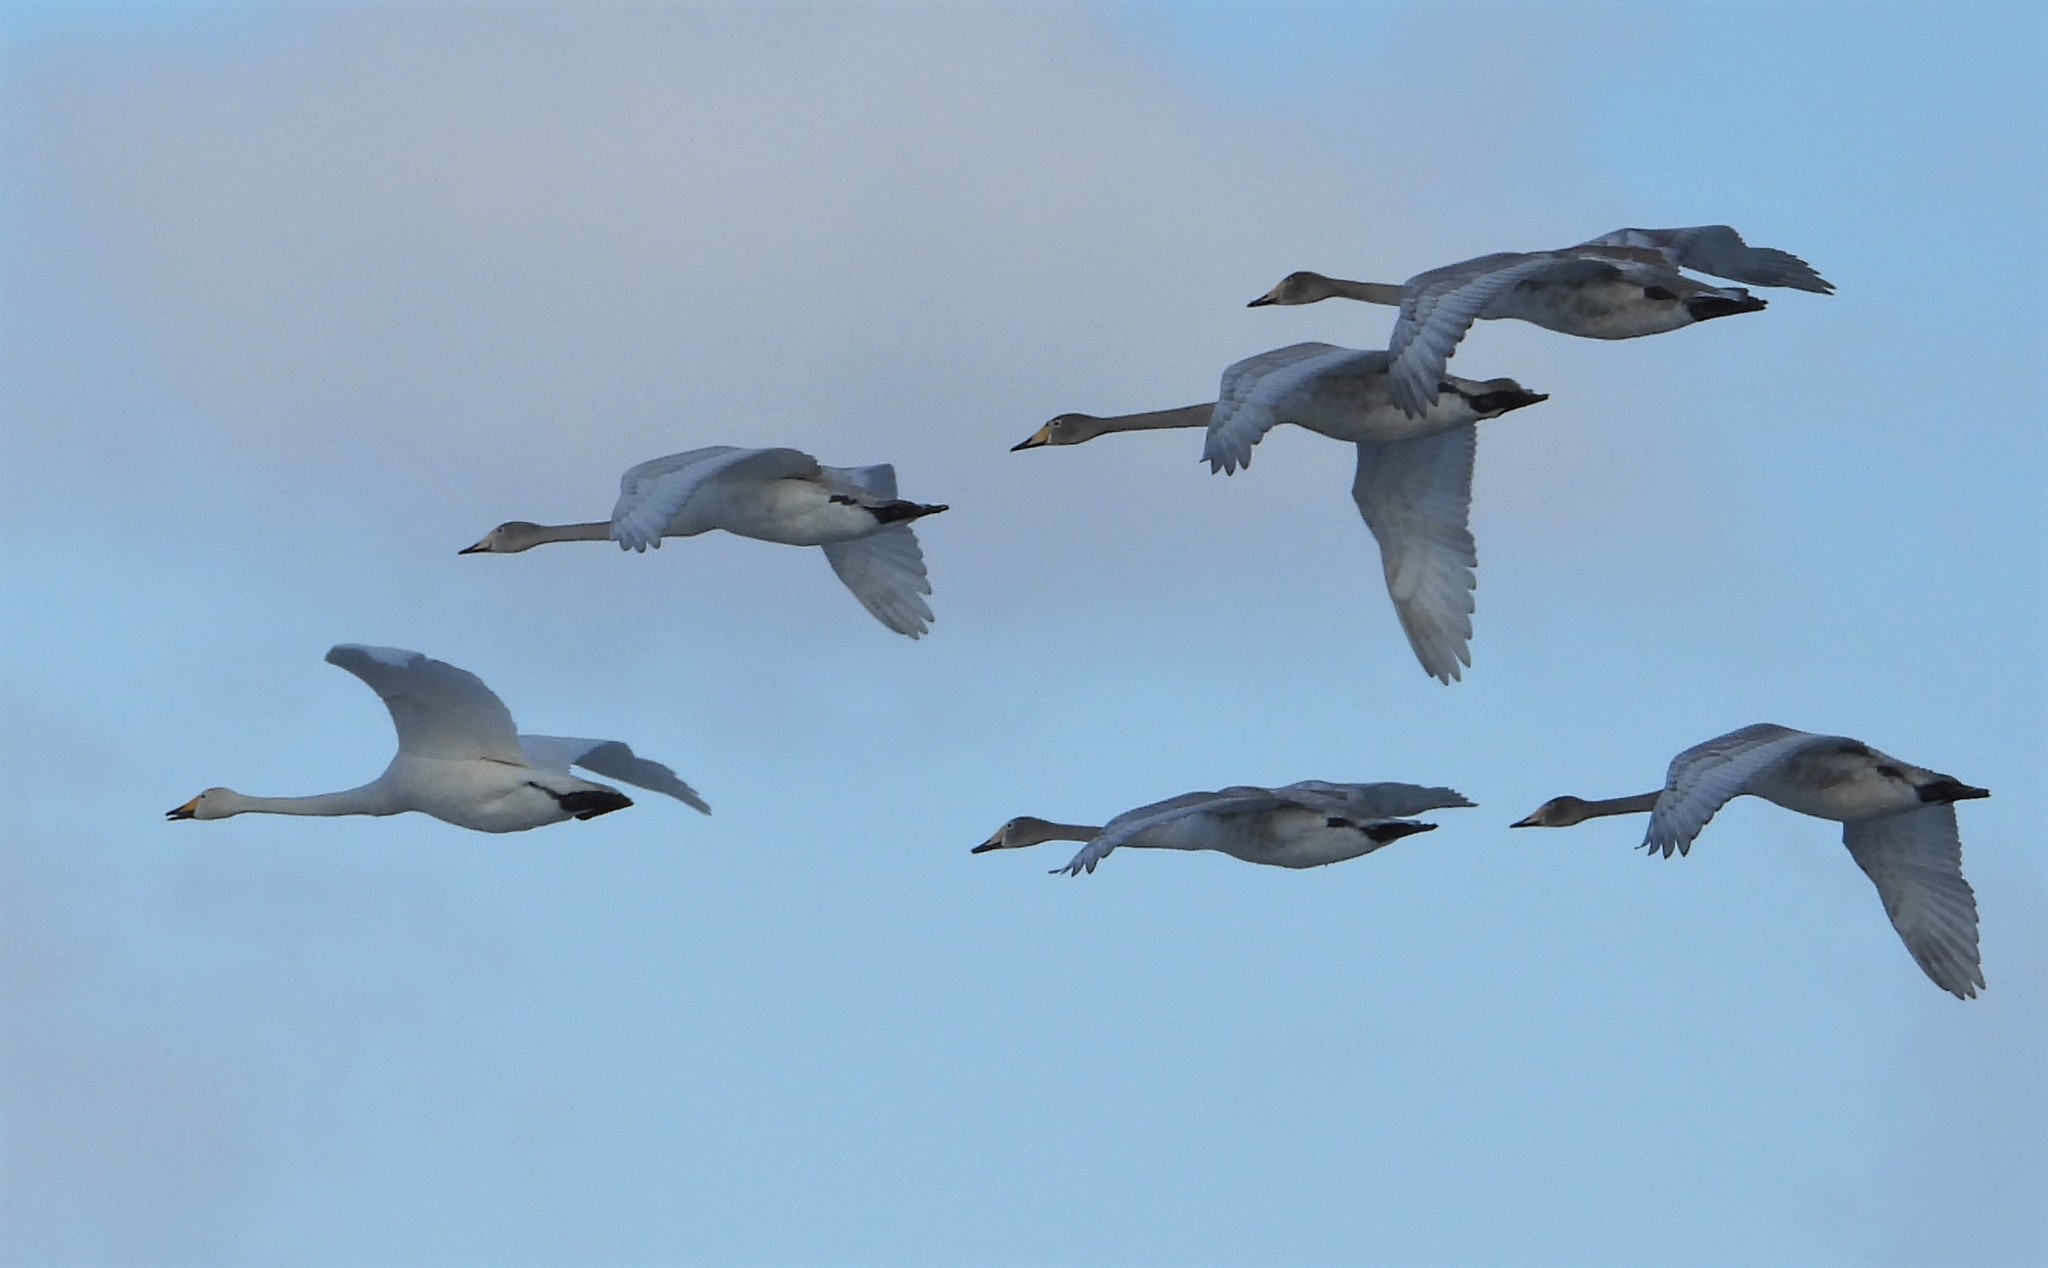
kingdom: Animalia
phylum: Chordata
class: Aves
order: Anseriformes
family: Anatidae
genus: Cygnus
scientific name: Cygnus cygnus
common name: Whooper swan
